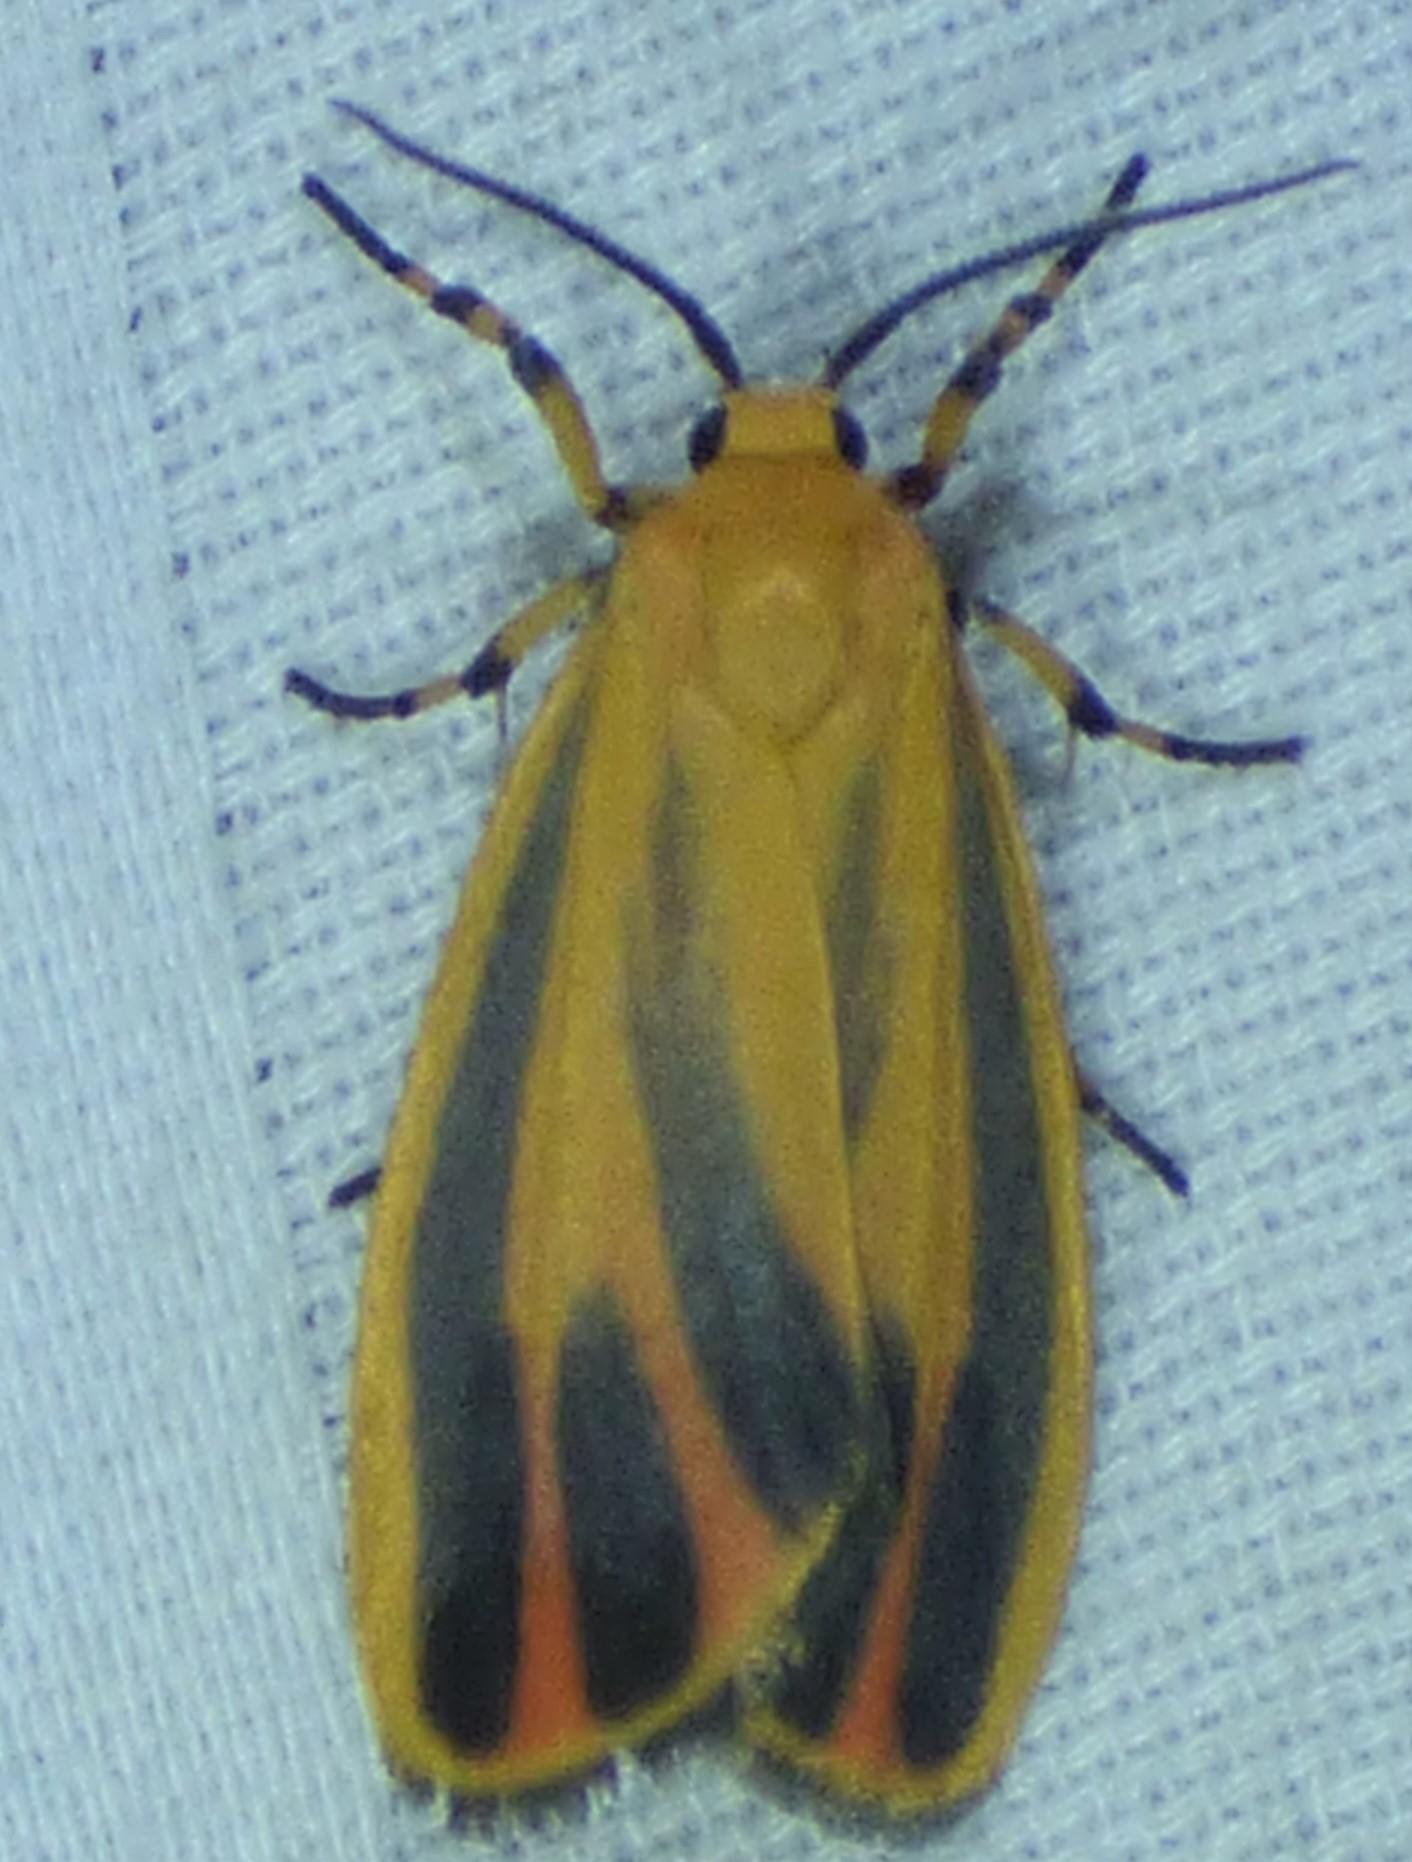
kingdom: Animalia
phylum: Arthropoda
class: Insecta
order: Lepidoptera
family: Erebidae
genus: Hypoprepia
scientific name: Hypoprepia fucosa
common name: Painted lichen moth
